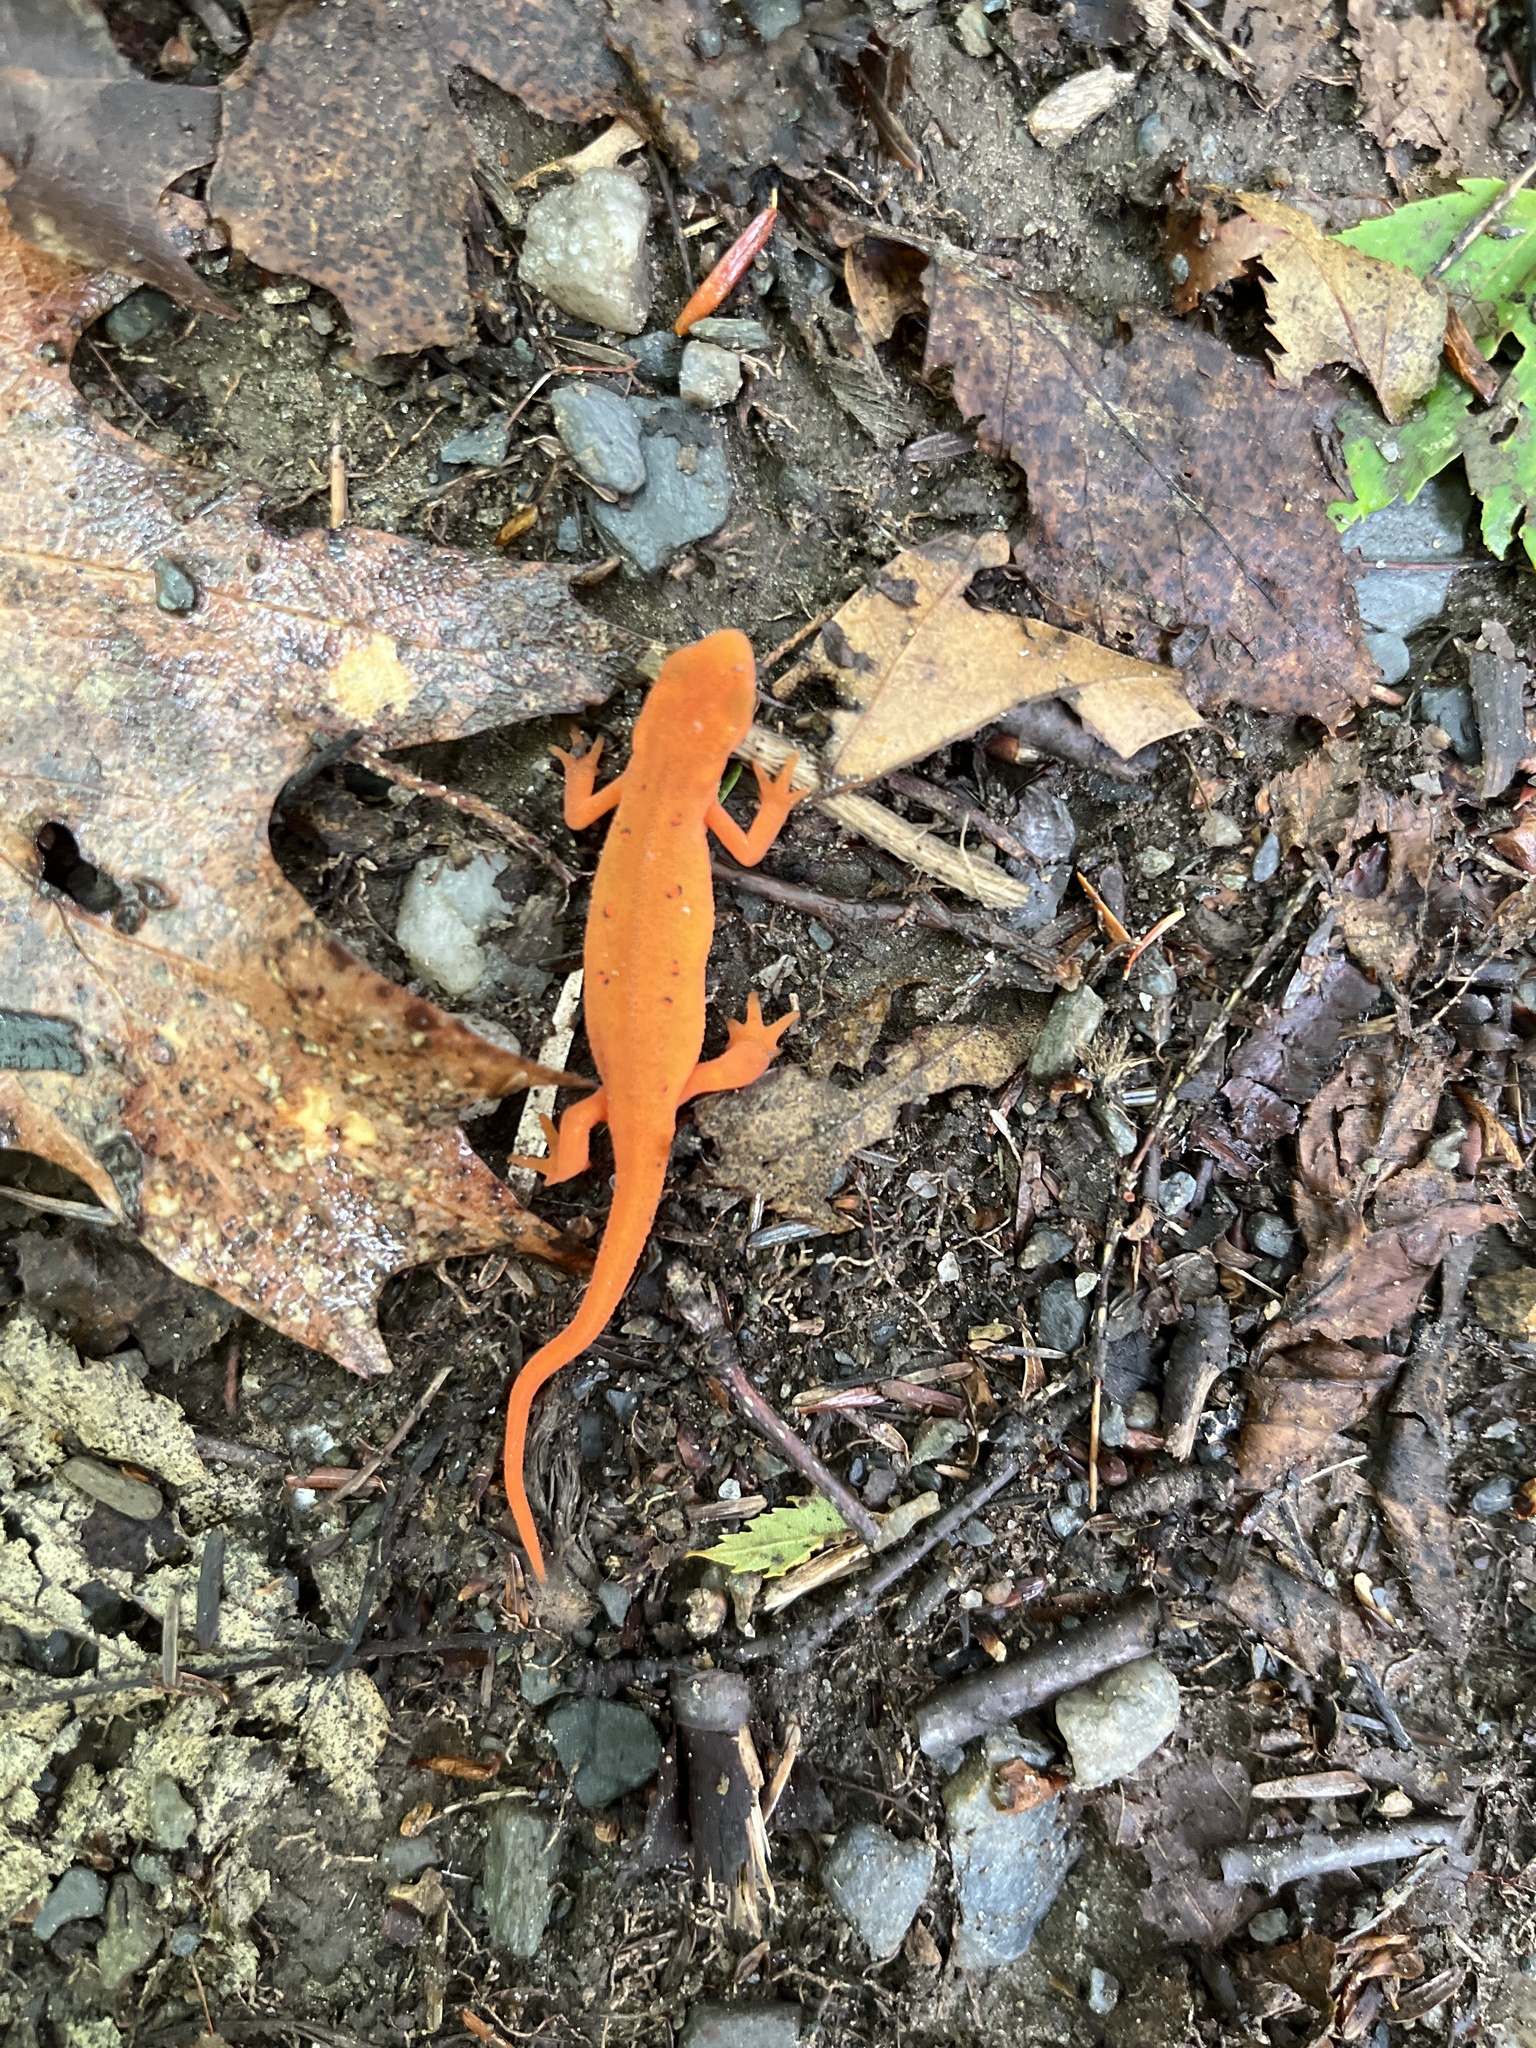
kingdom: Animalia
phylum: Chordata
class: Amphibia
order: Caudata
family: Salamandridae
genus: Notophthalmus
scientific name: Notophthalmus viridescens
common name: Eastern newt
